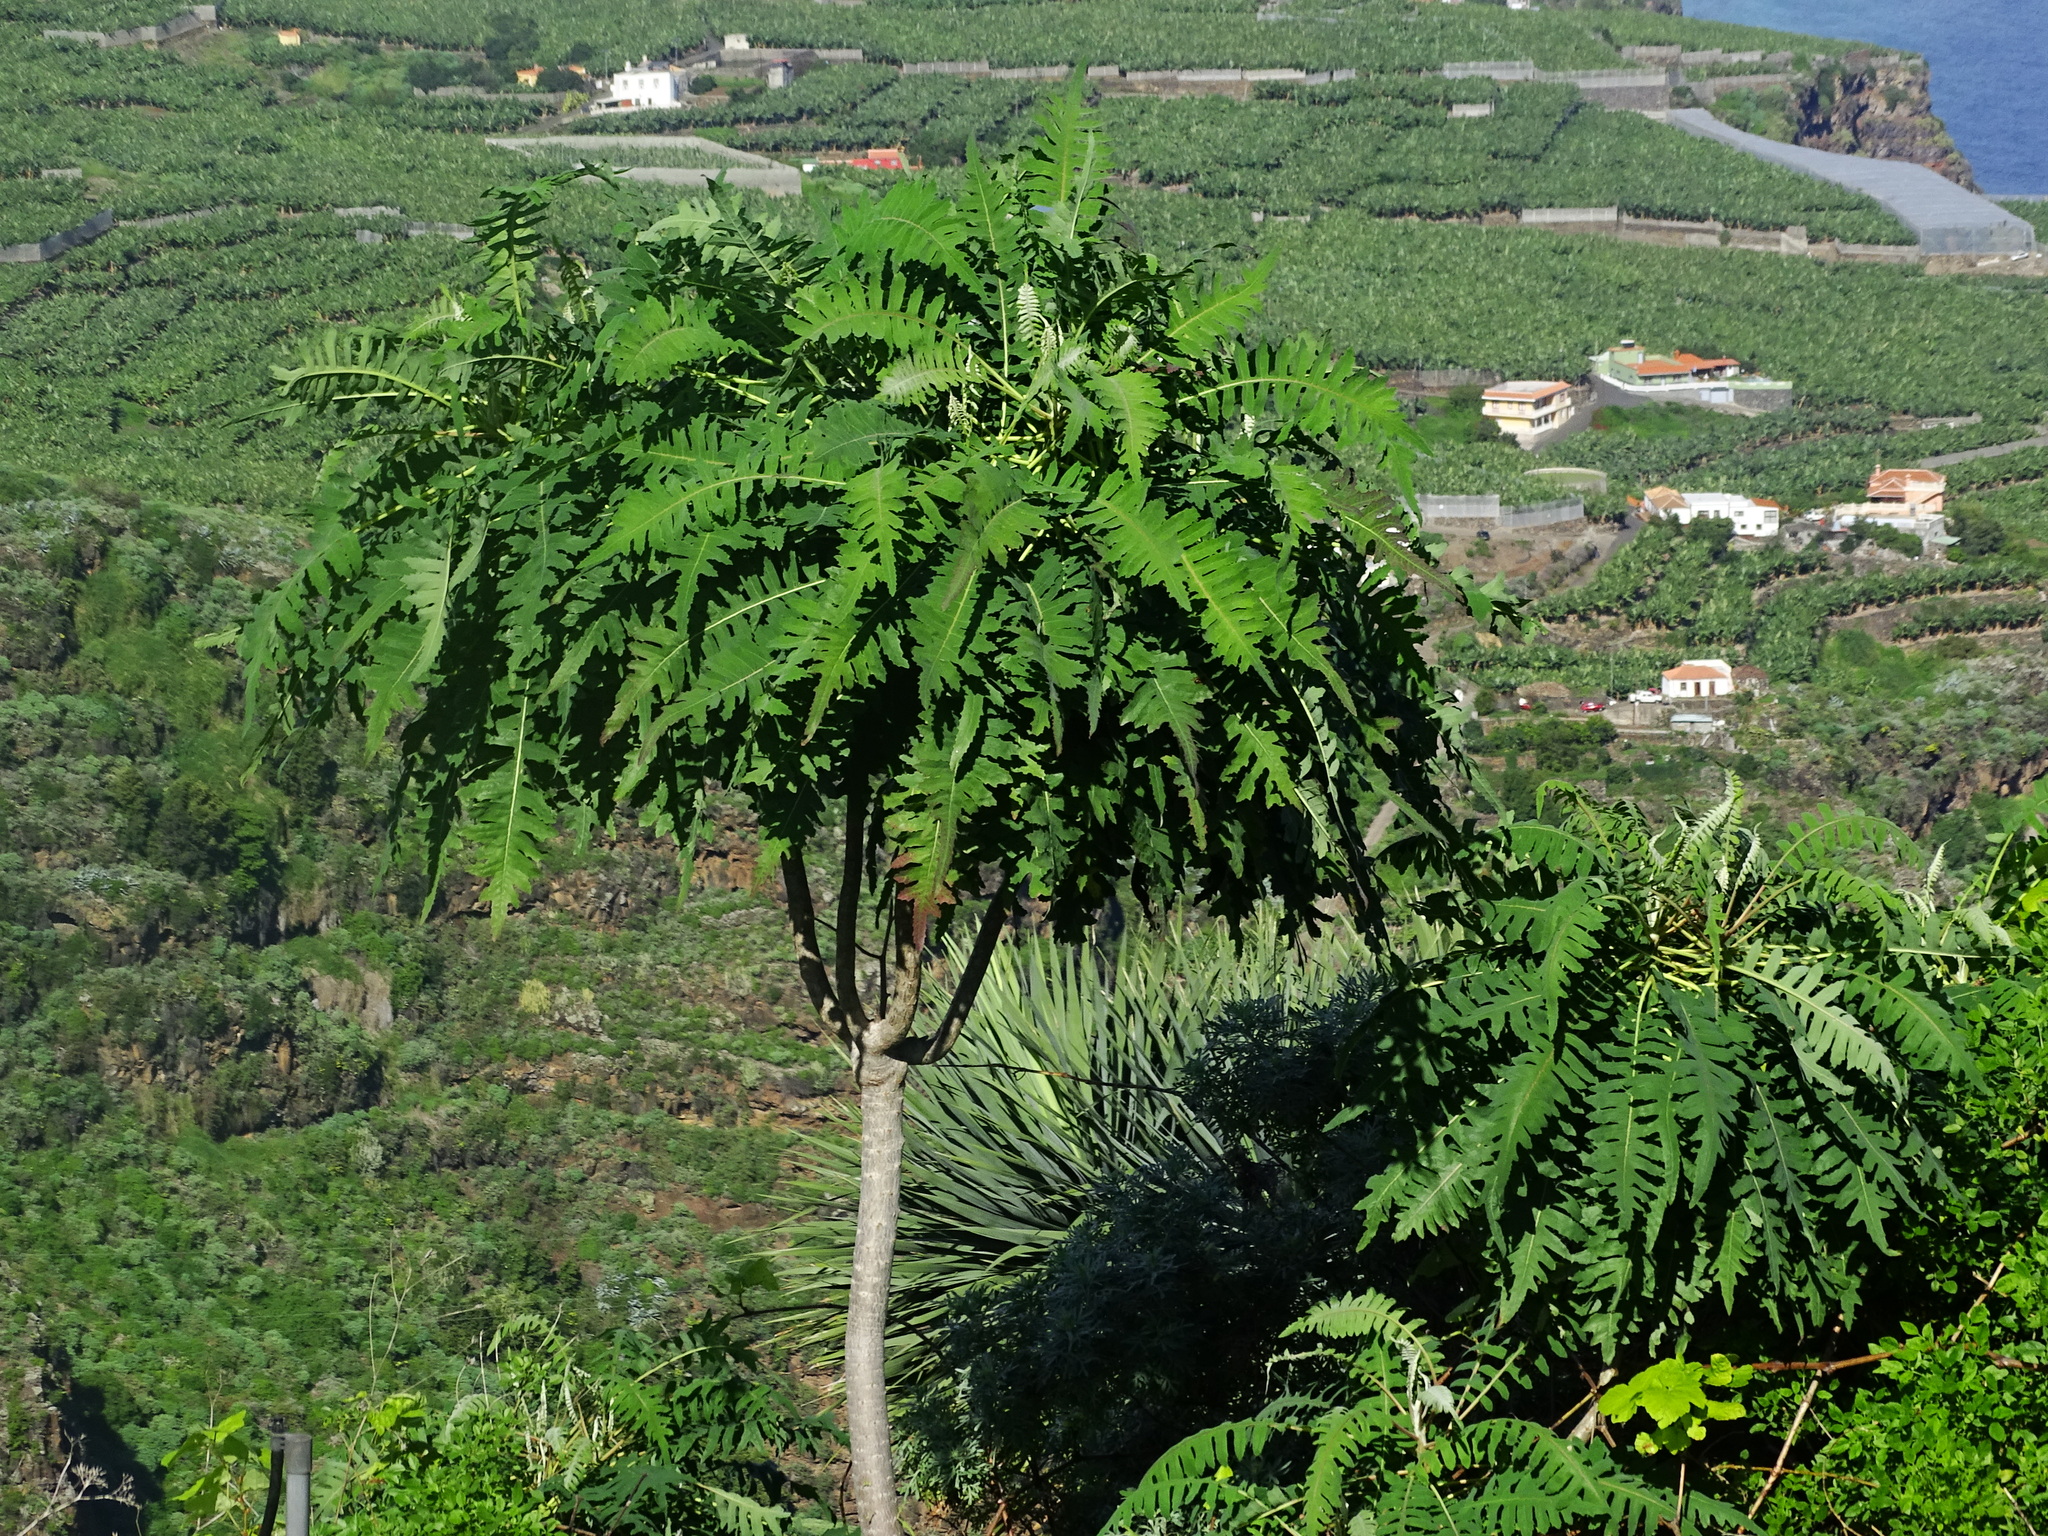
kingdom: Plantae
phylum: Tracheophyta
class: Magnoliopsida
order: Asterales
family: Asteraceae
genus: Sonchus
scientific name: Sonchus palmensis
